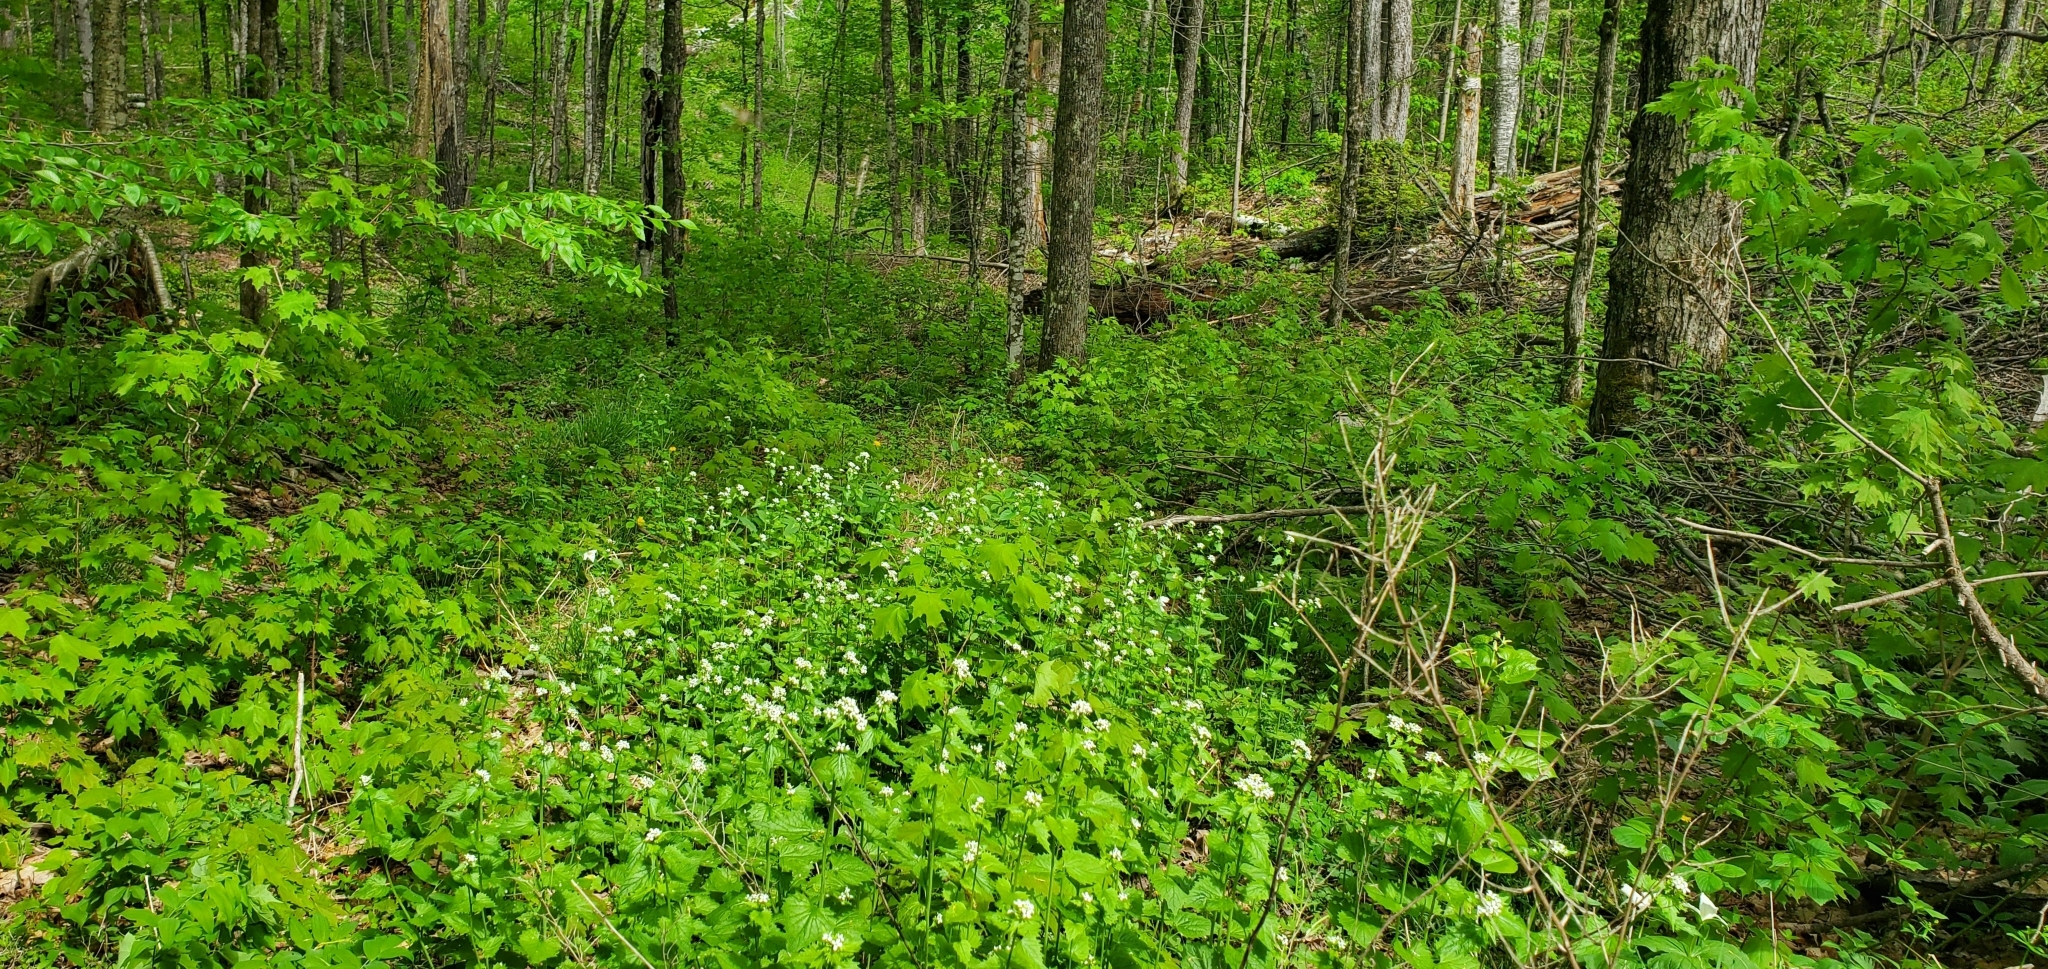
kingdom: Plantae
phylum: Tracheophyta
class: Magnoliopsida
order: Brassicales
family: Brassicaceae
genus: Alliaria
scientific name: Alliaria petiolata
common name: Garlic mustard
